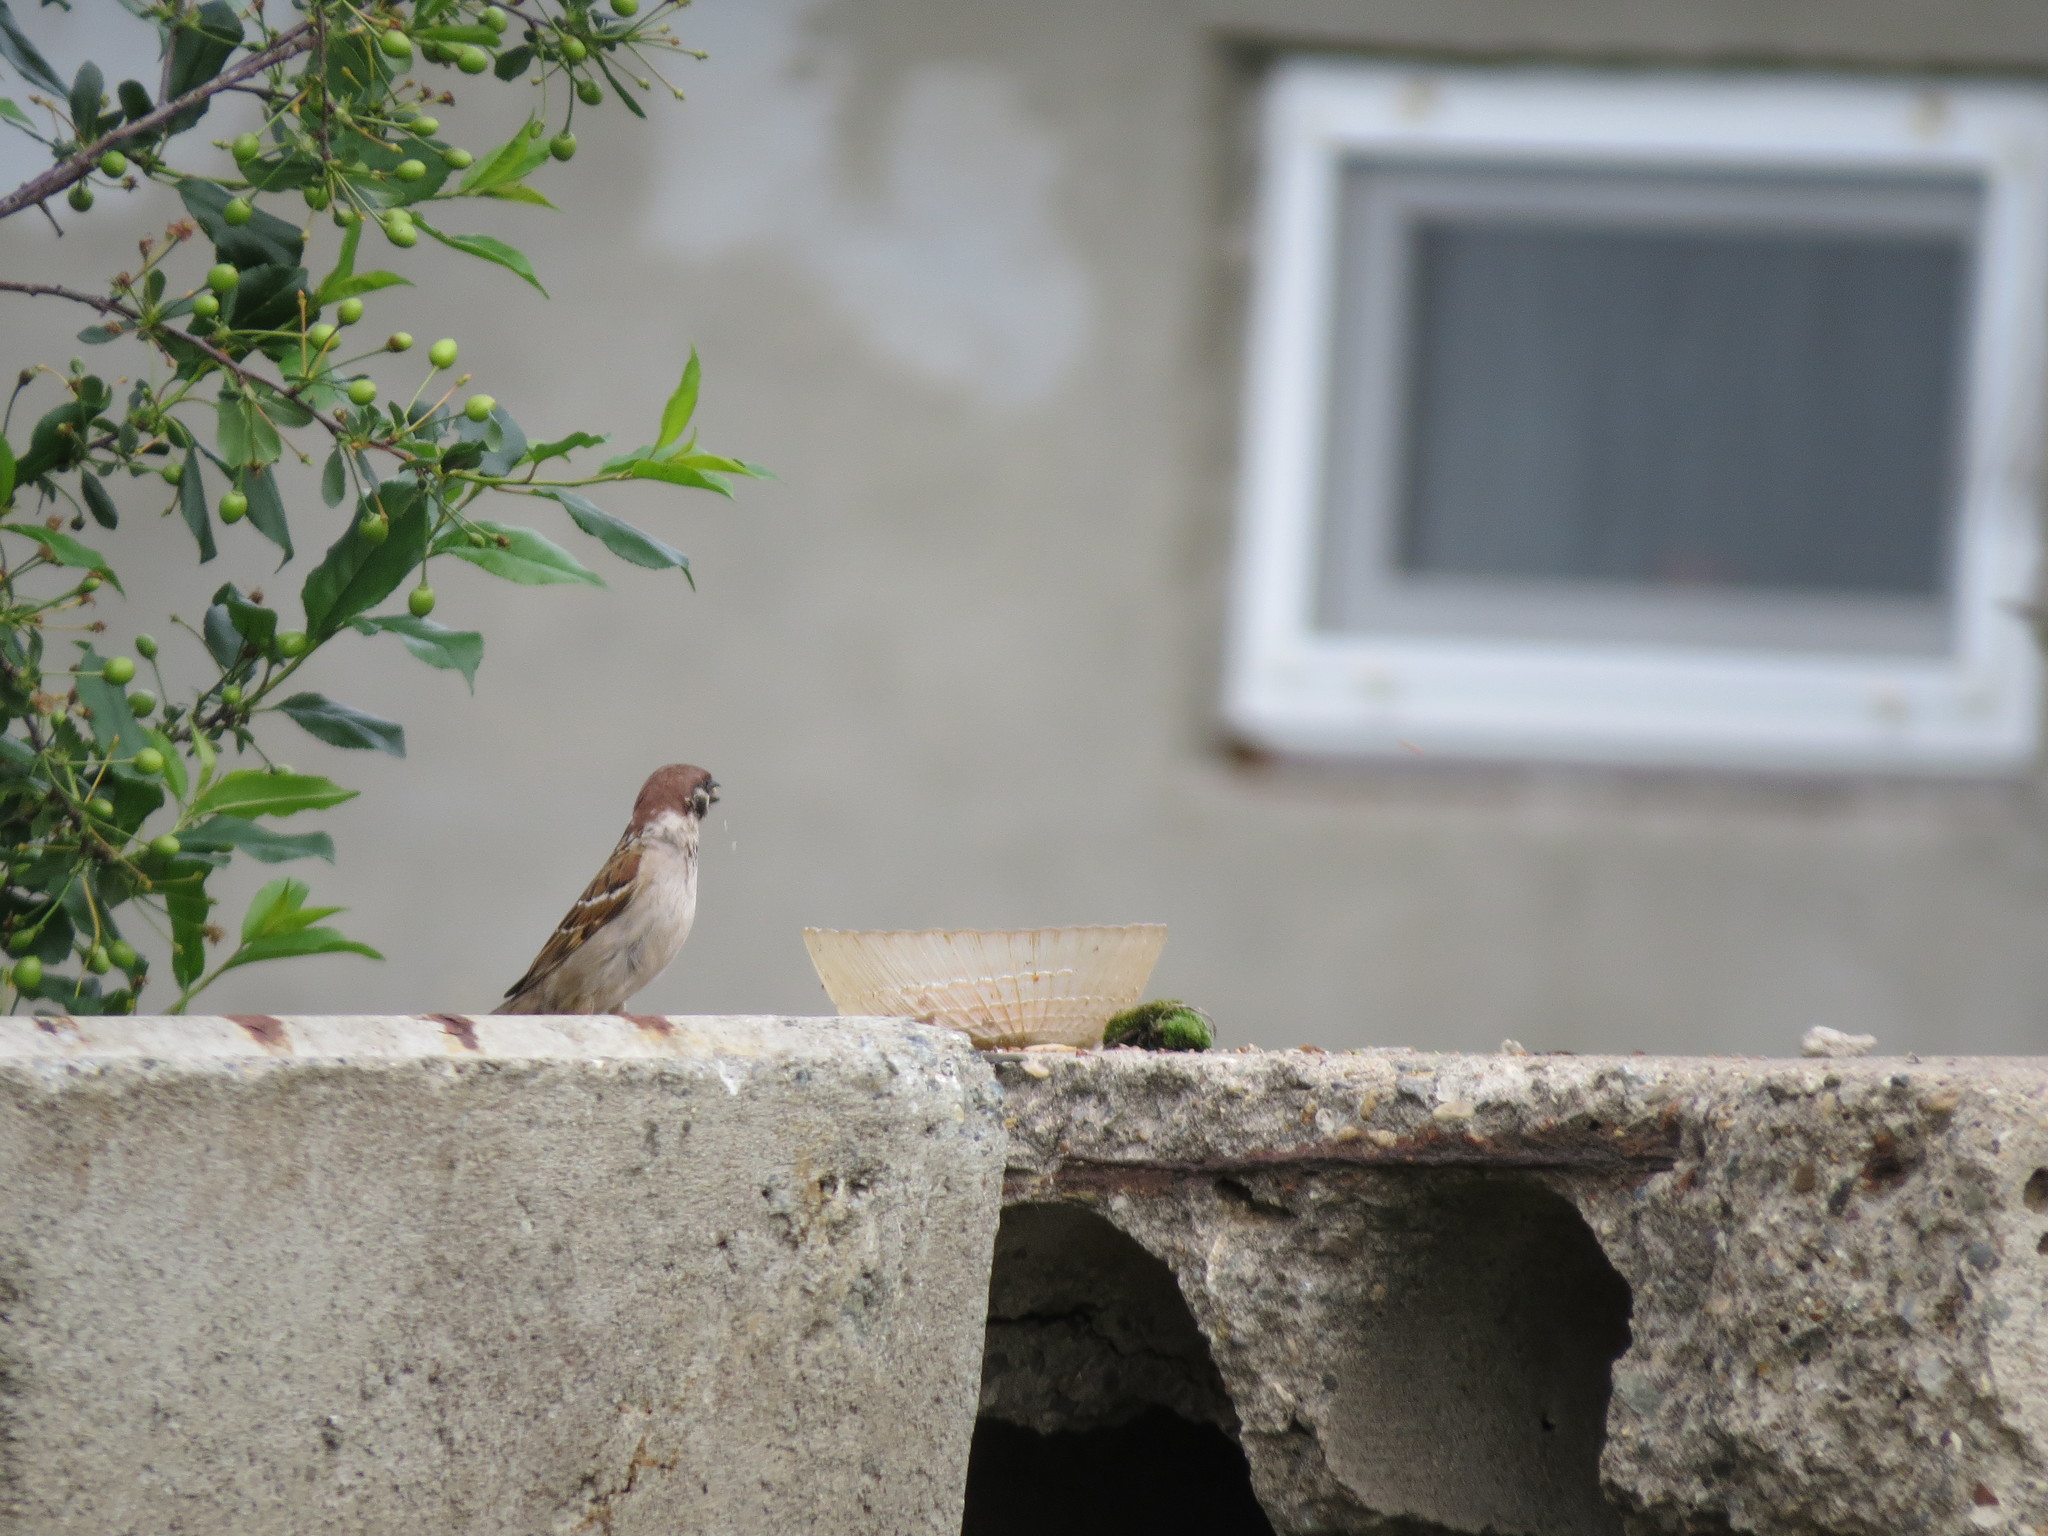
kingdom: Animalia
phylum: Chordata
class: Aves
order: Passeriformes
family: Passeridae
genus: Passer
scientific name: Passer montanus
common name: Eurasian tree sparrow
